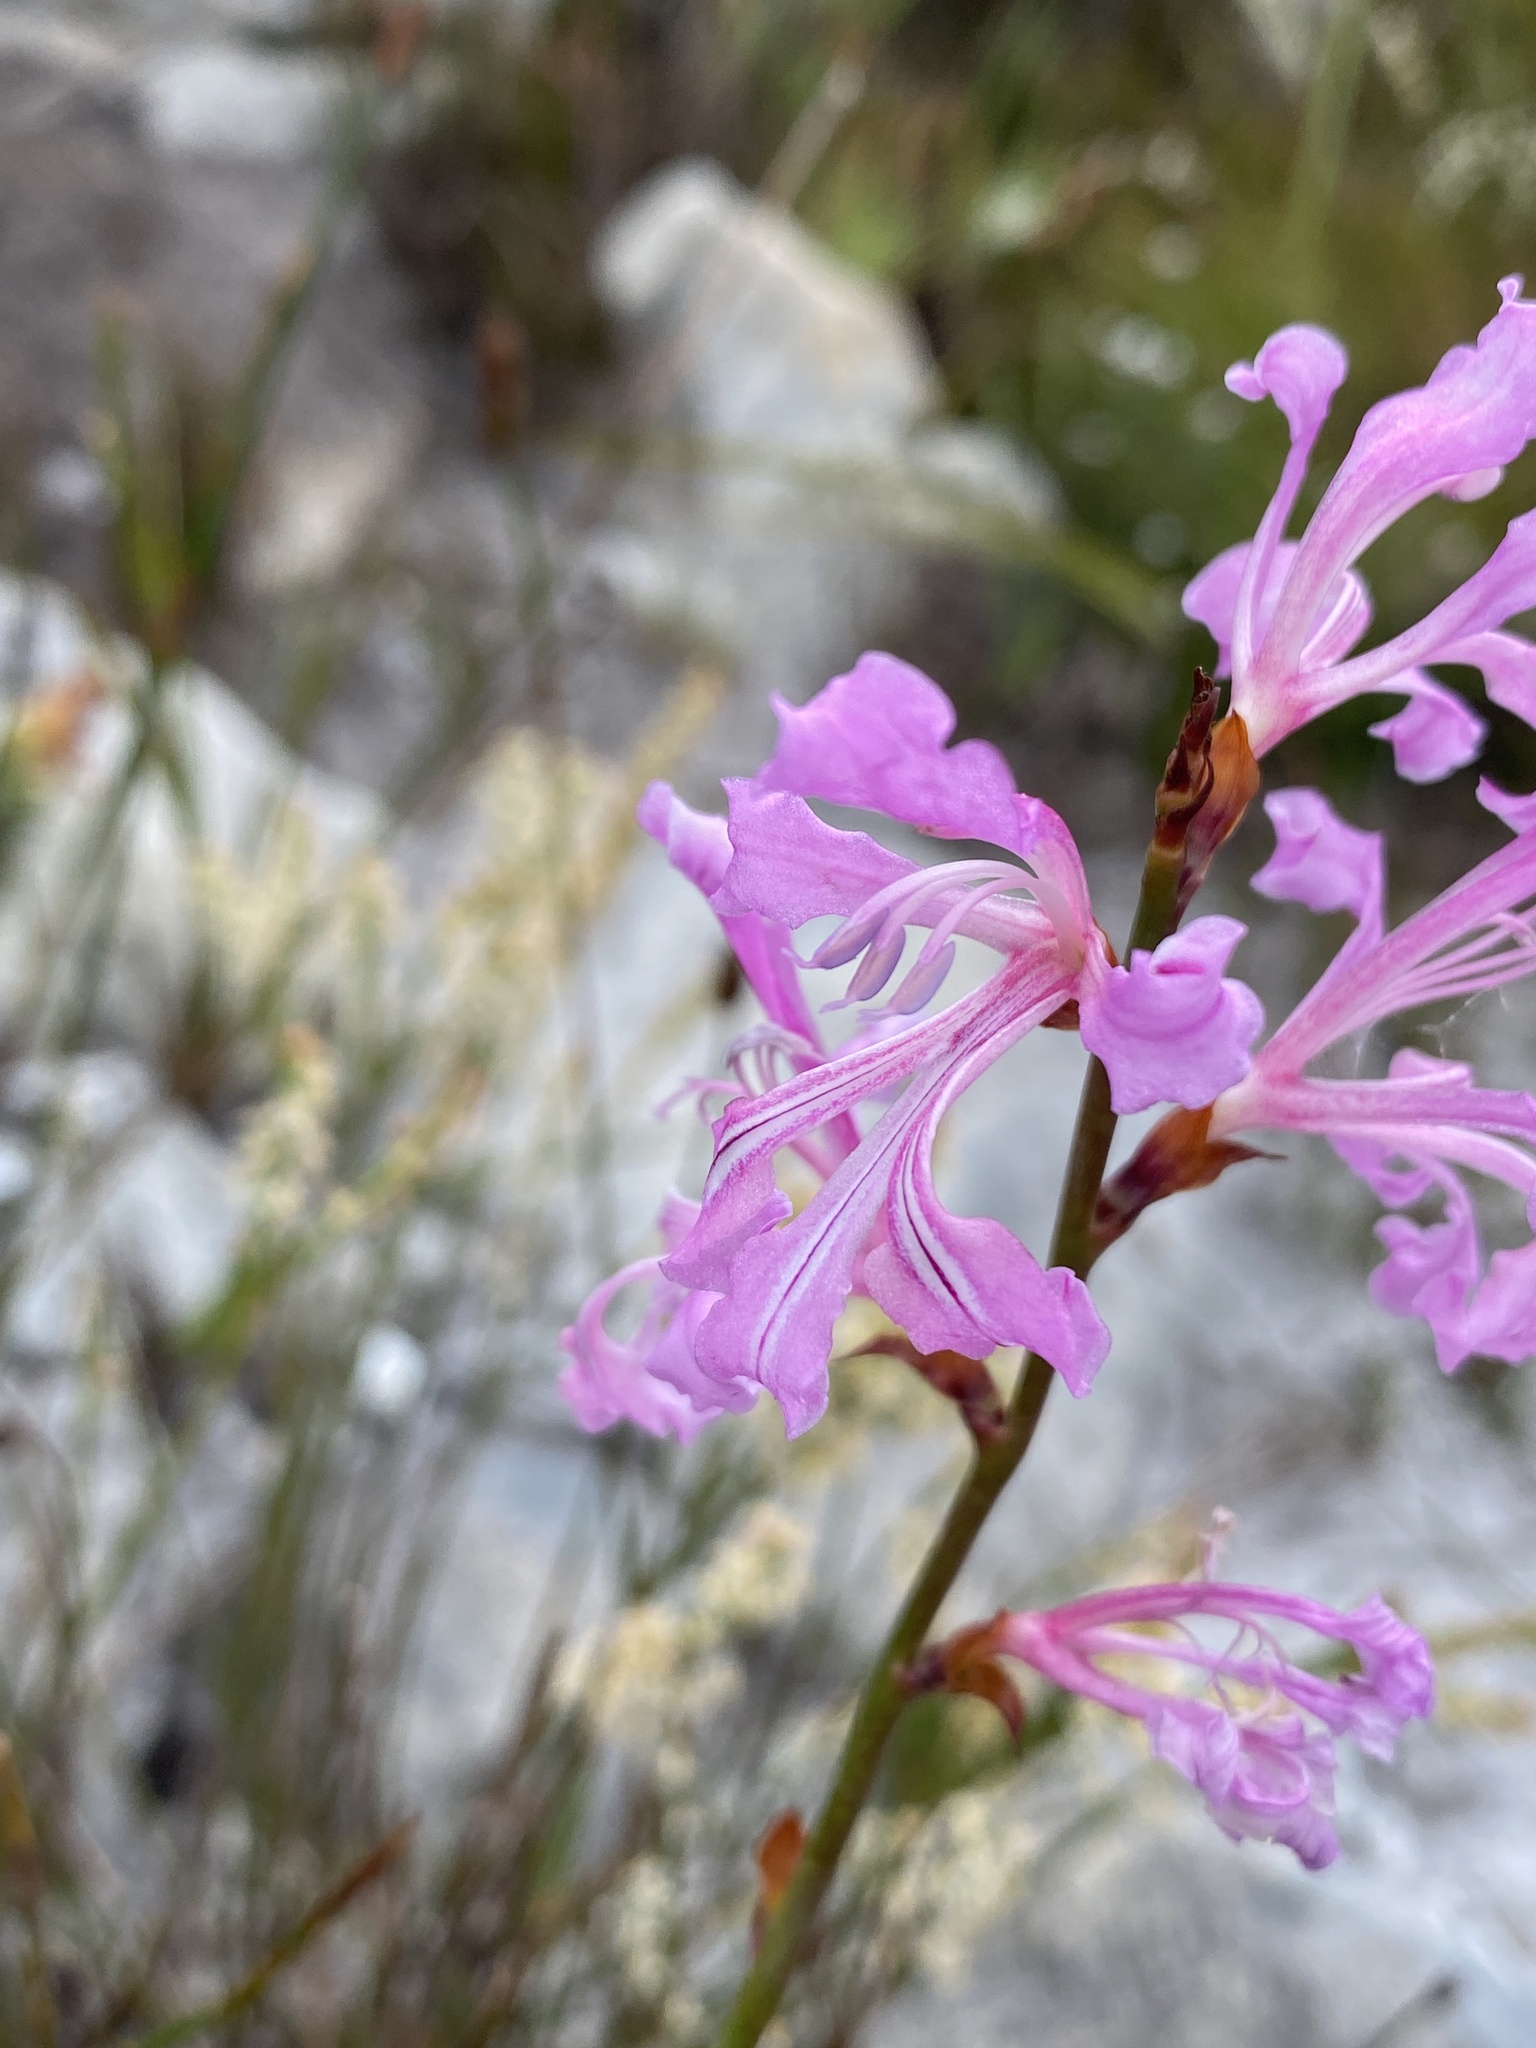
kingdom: Plantae
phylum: Tracheophyta
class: Liliopsida
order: Asparagales
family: Iridaceae
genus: Tritoniopsis
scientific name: Tritoniopsis lata
